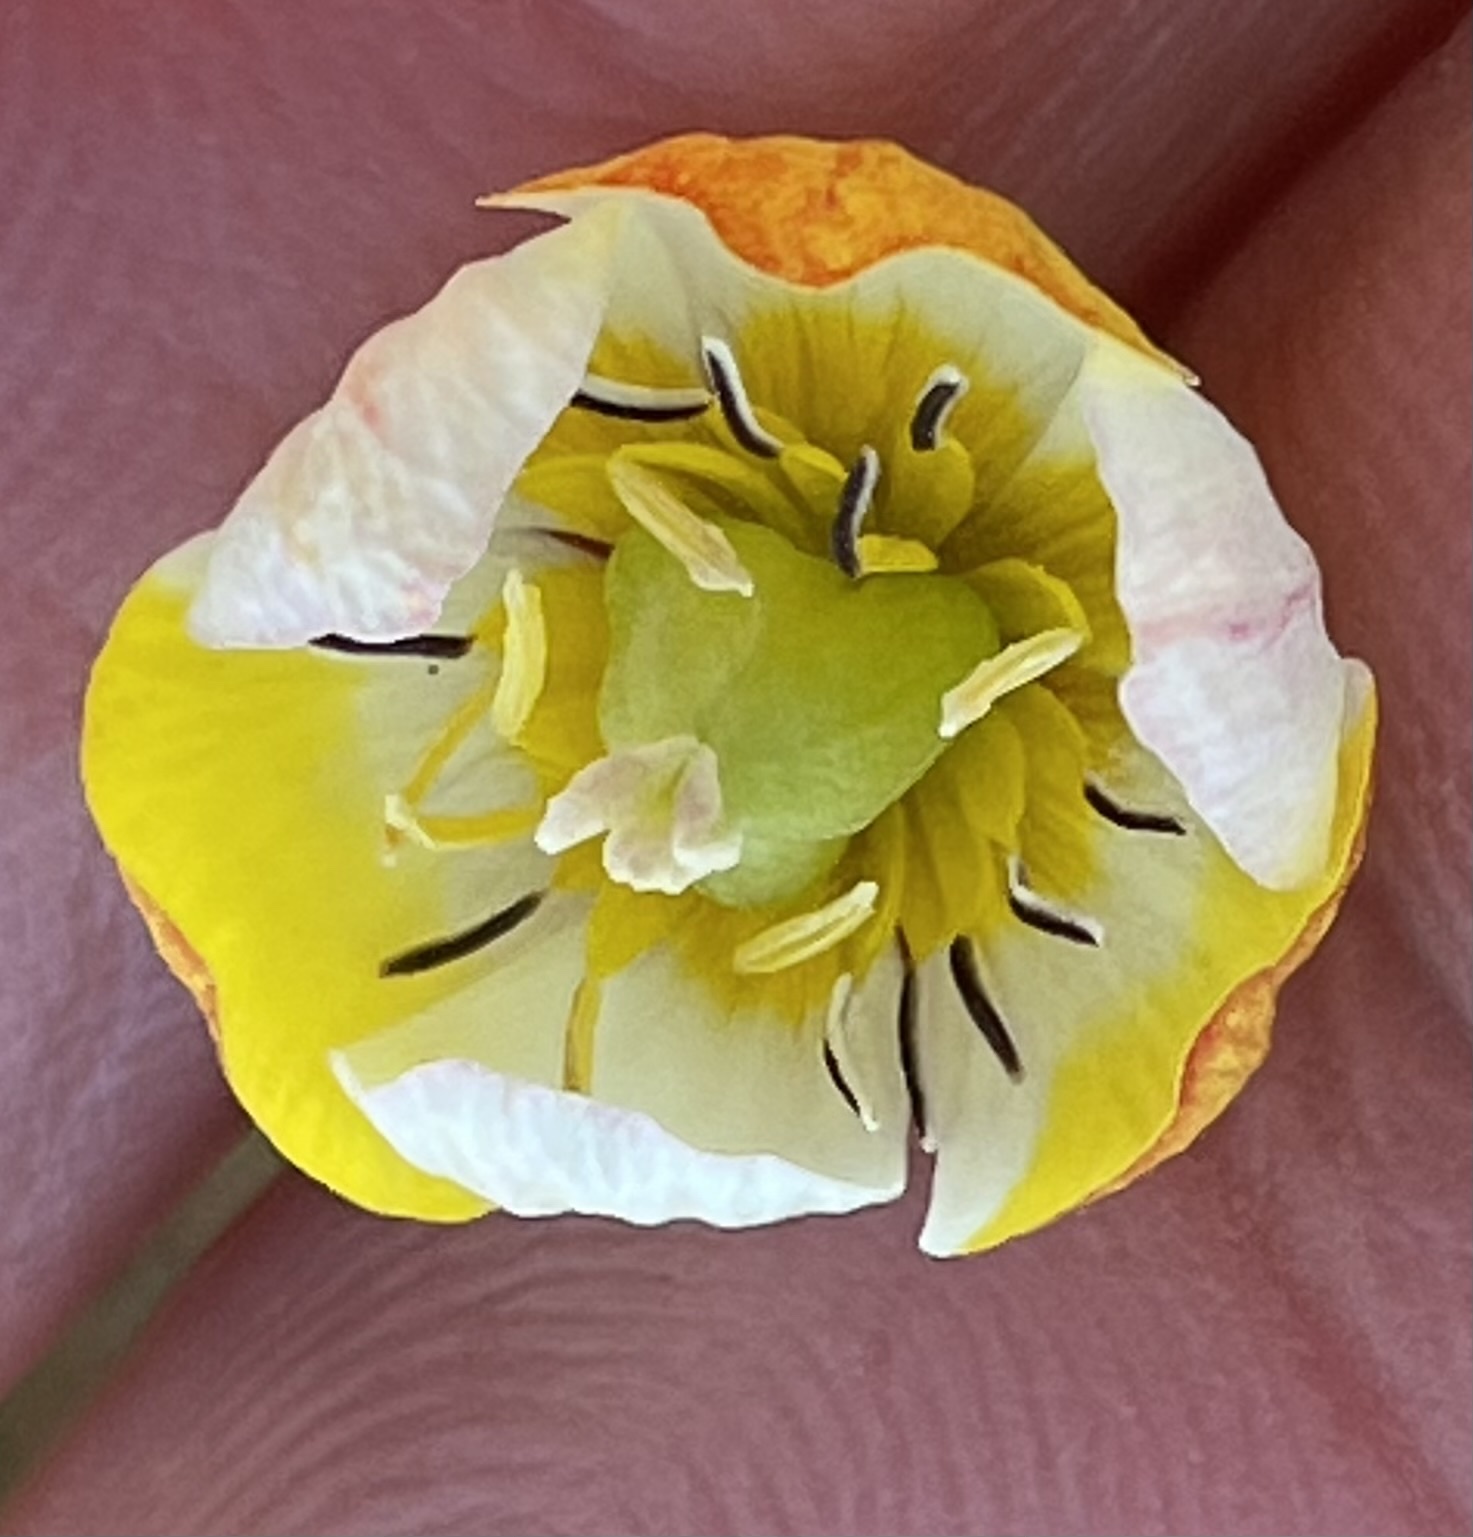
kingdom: Plantae
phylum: Tracheophyta
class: Magnoliopsida
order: Ranunculales
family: Papaveraceae
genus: Platystigma
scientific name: Platystigma lineare
